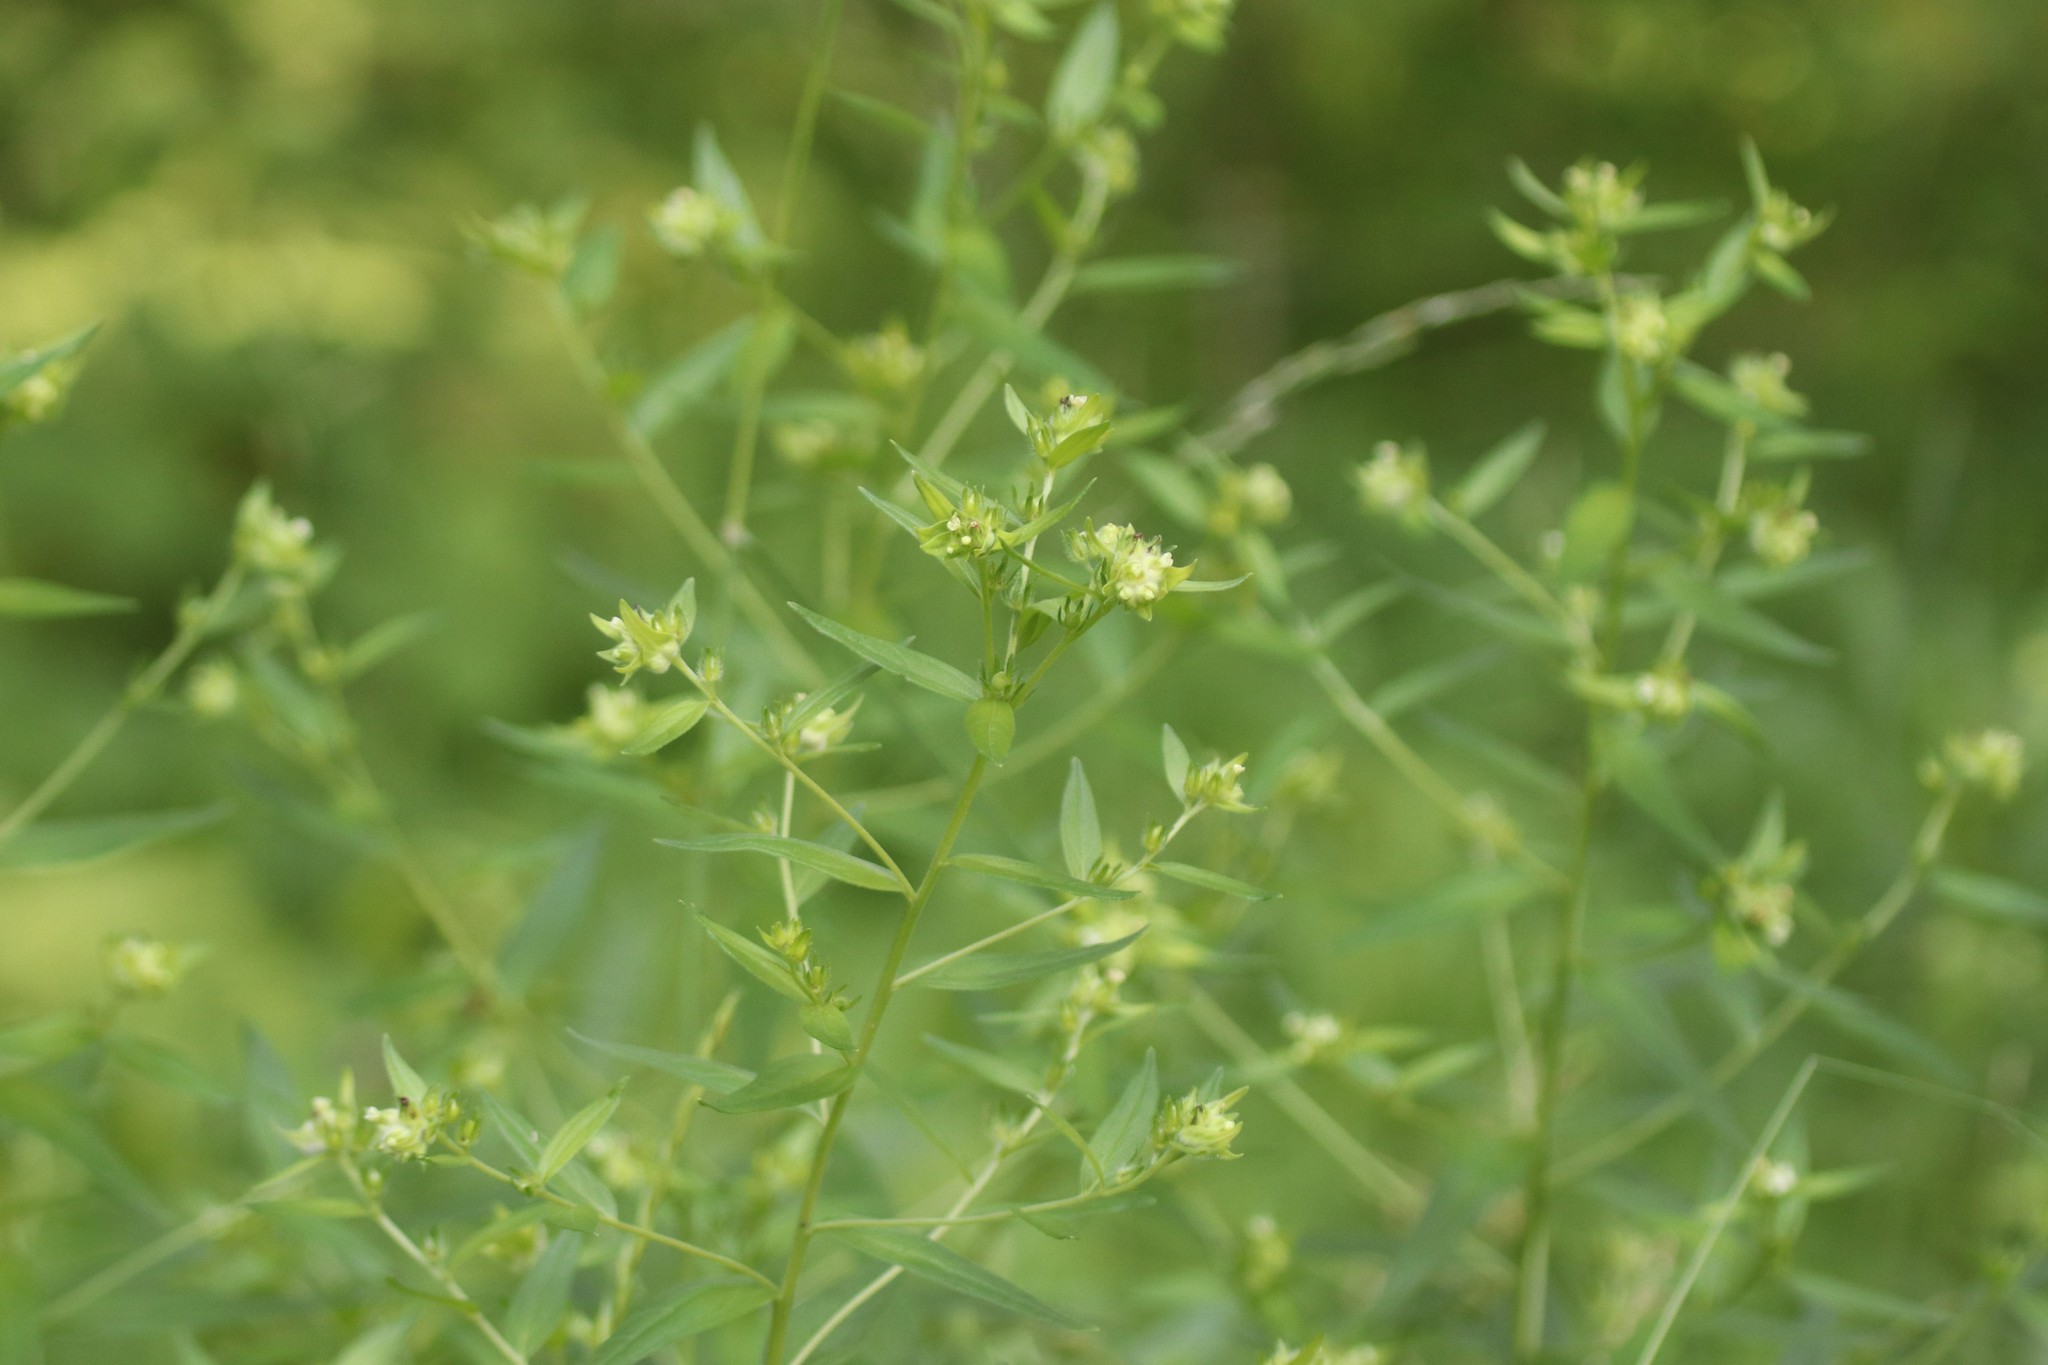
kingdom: Plantae
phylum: Tracheophyta
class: Magnoliopsida
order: Boraginales
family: Boraginaceae
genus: Lithospermum
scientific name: Lithospermum officinale
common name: Common gromwell
